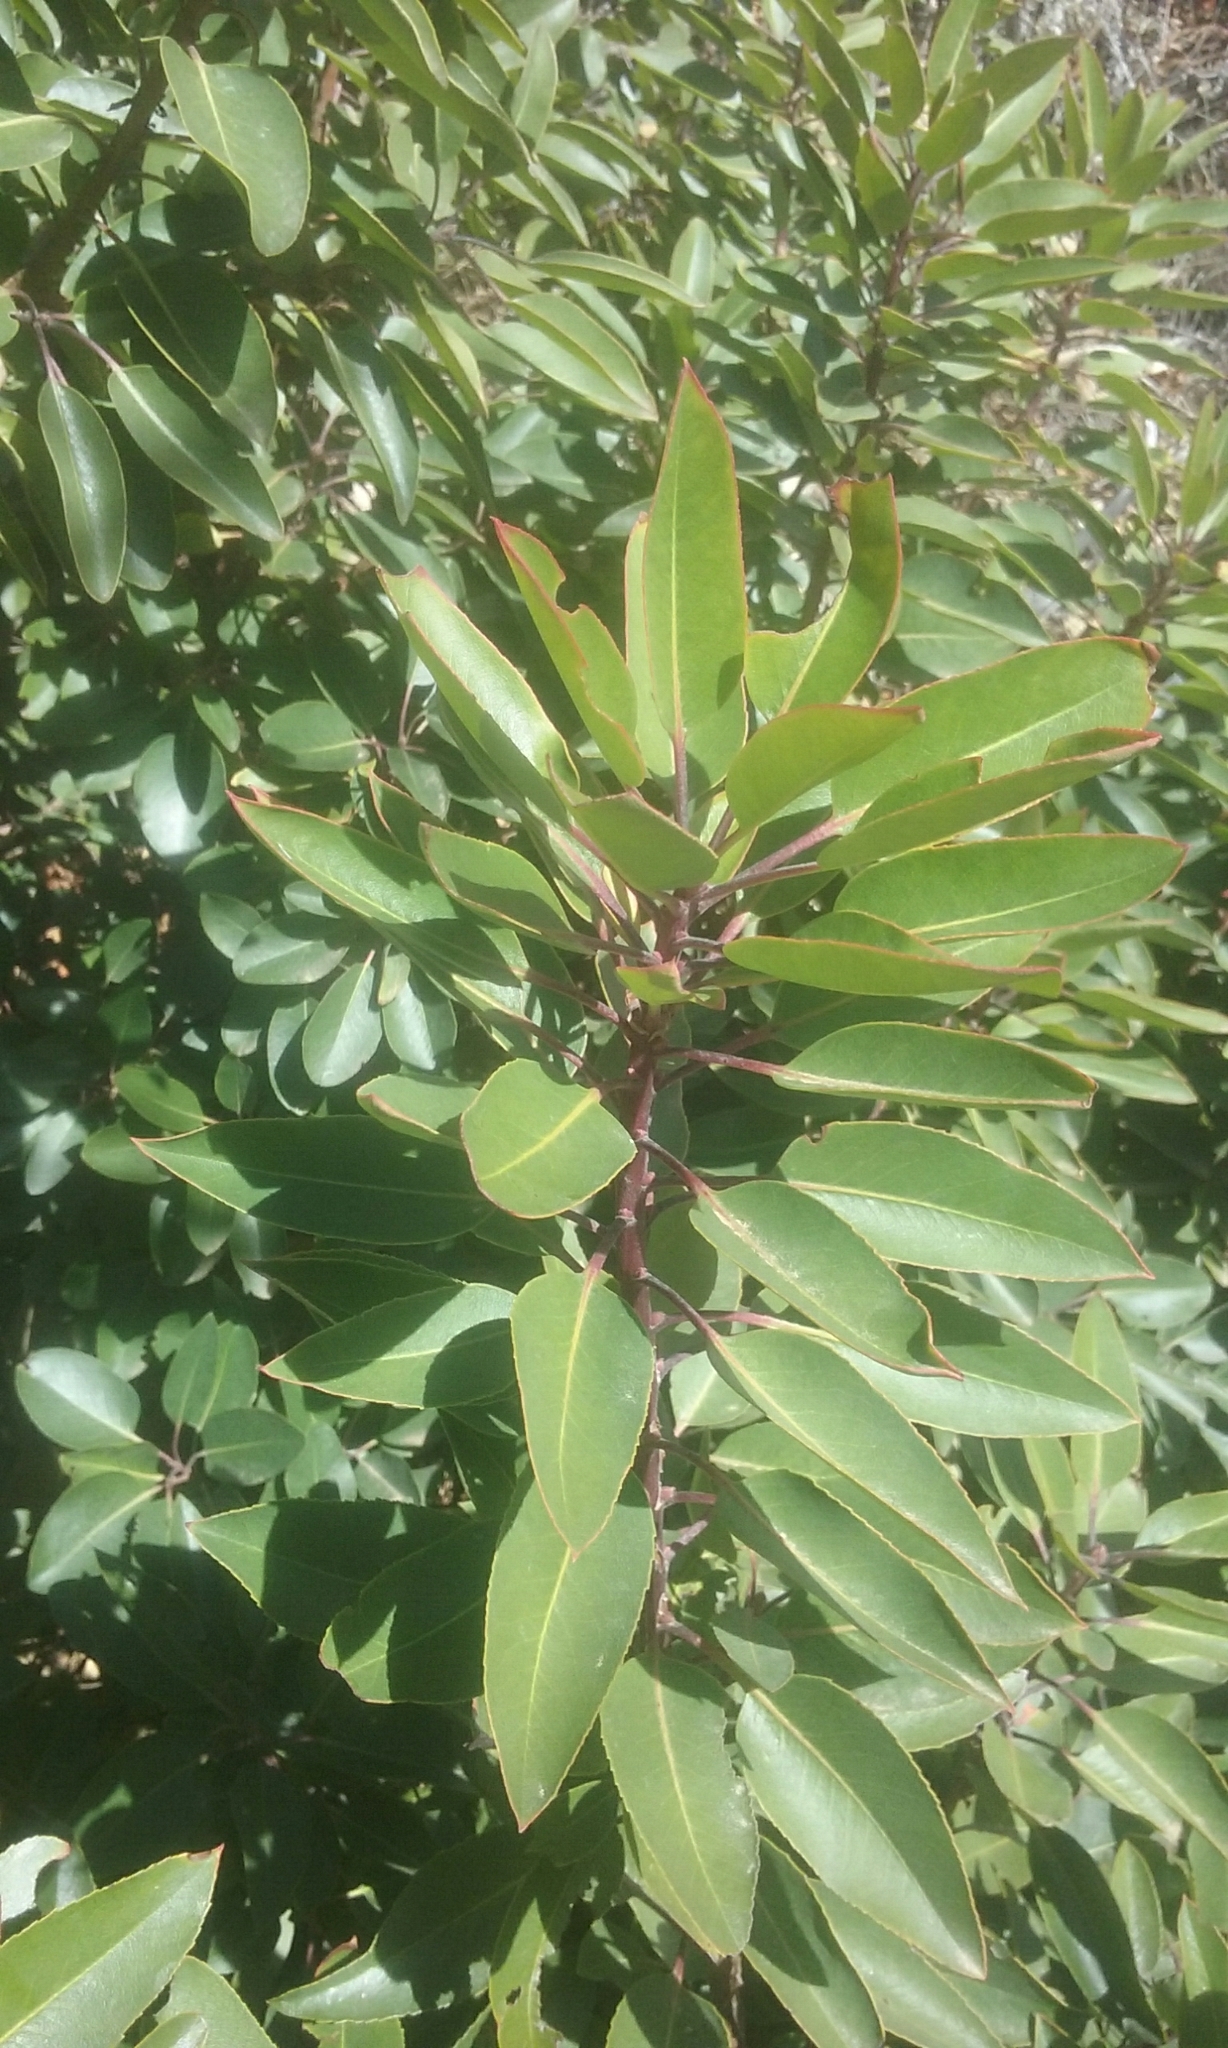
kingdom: Plantae
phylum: Tracheophyta
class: Magnoliopsida
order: Ericales
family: Ericaceae
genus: Arbutus
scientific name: Arbutus xalapensis
